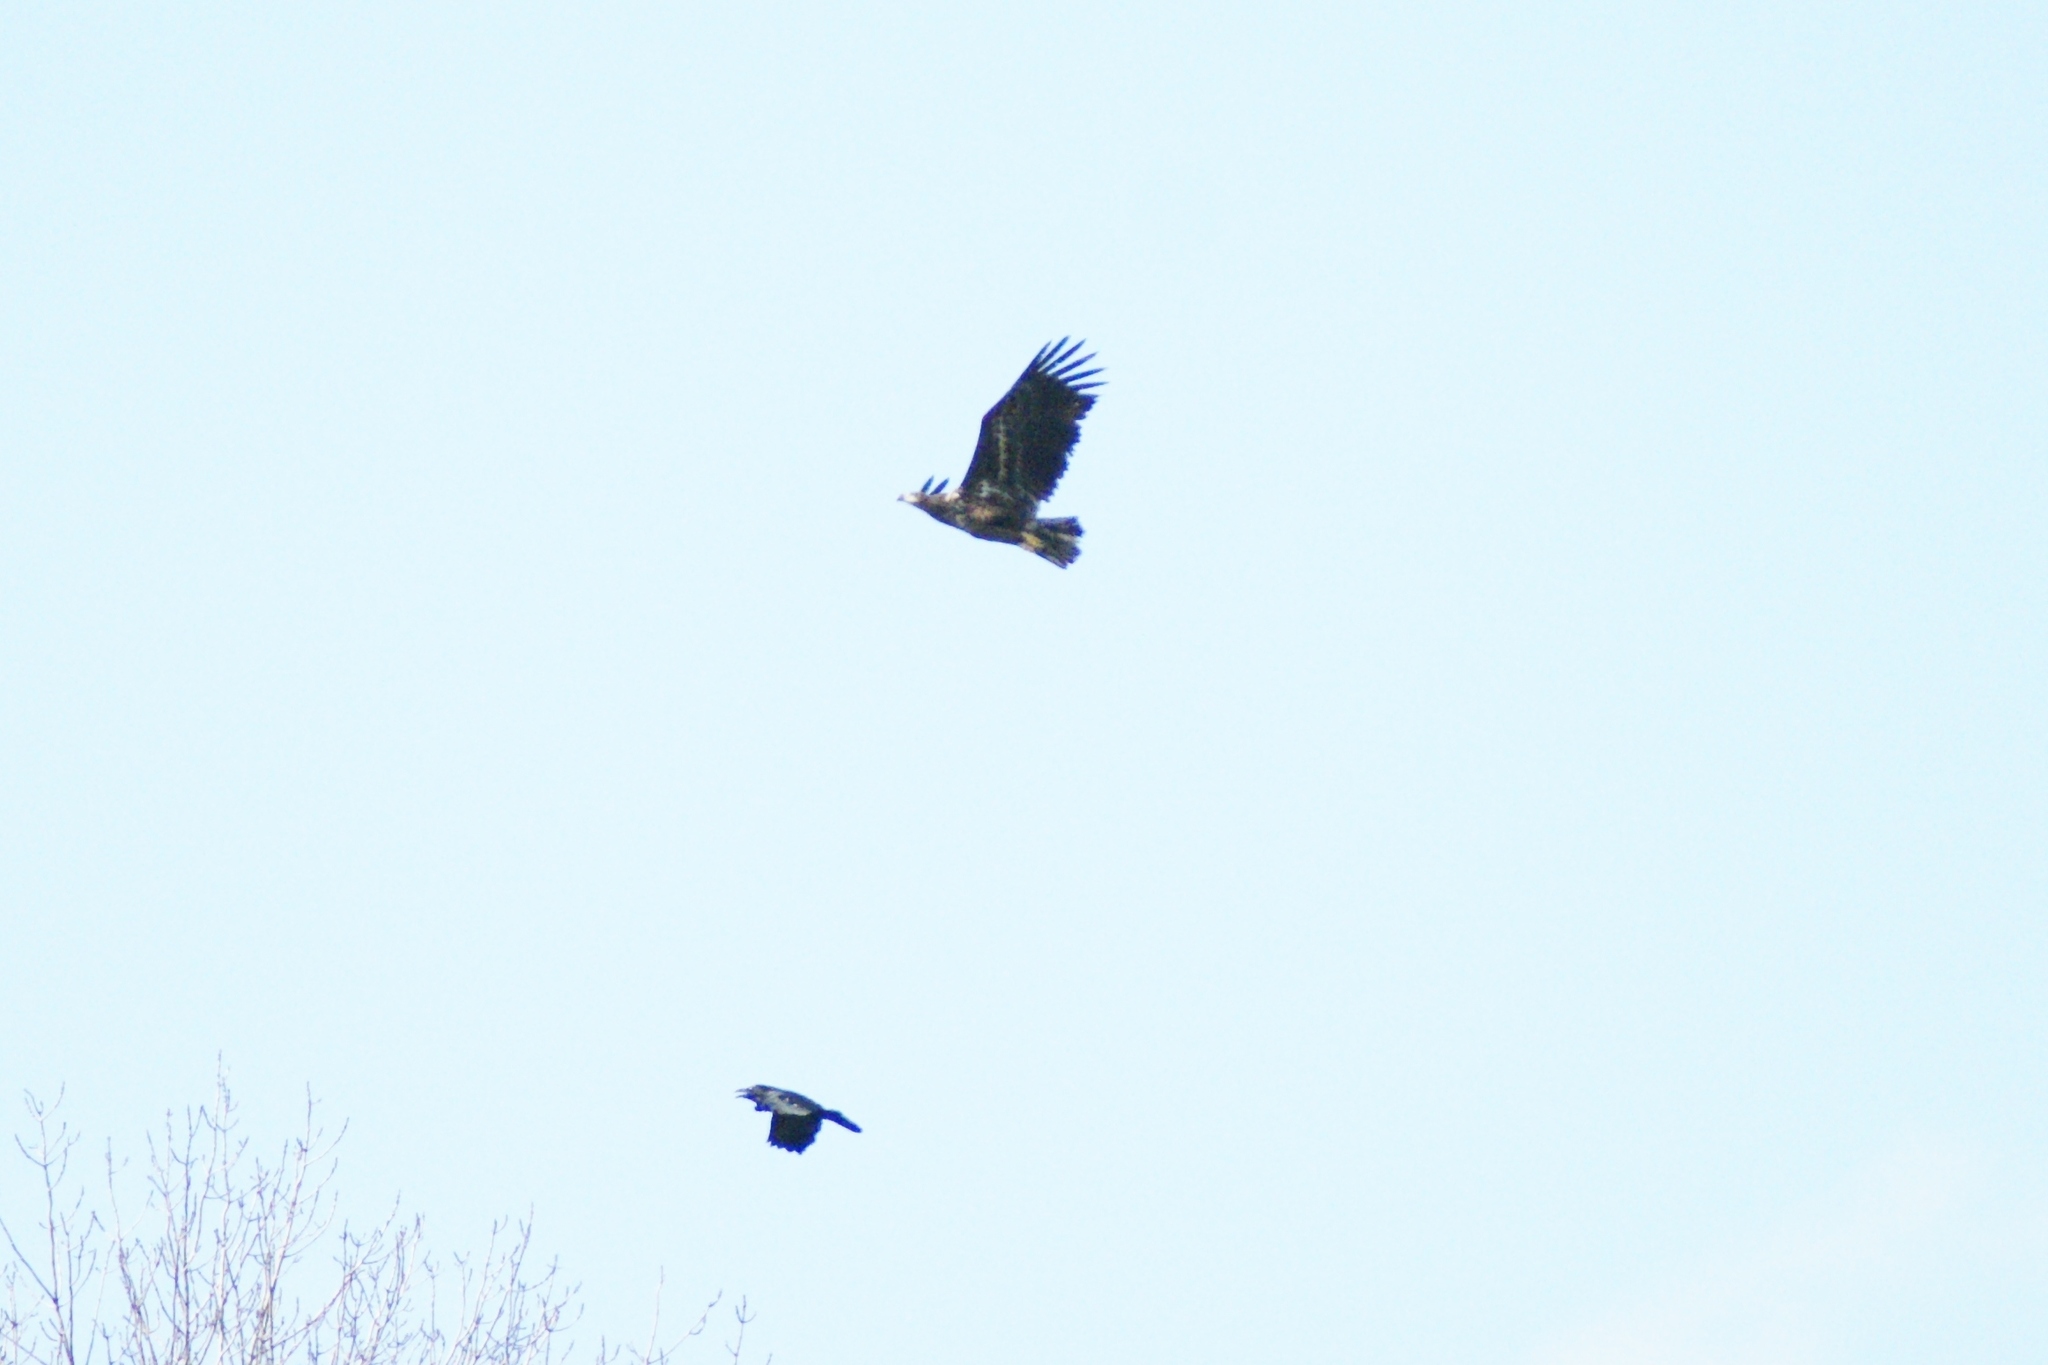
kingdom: Animalia
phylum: Chordata
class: Aves
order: Accipitriformes
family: Accipitridae
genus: Haliaeetus
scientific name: Haliaeetus albicilla
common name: White-tailed eagle
